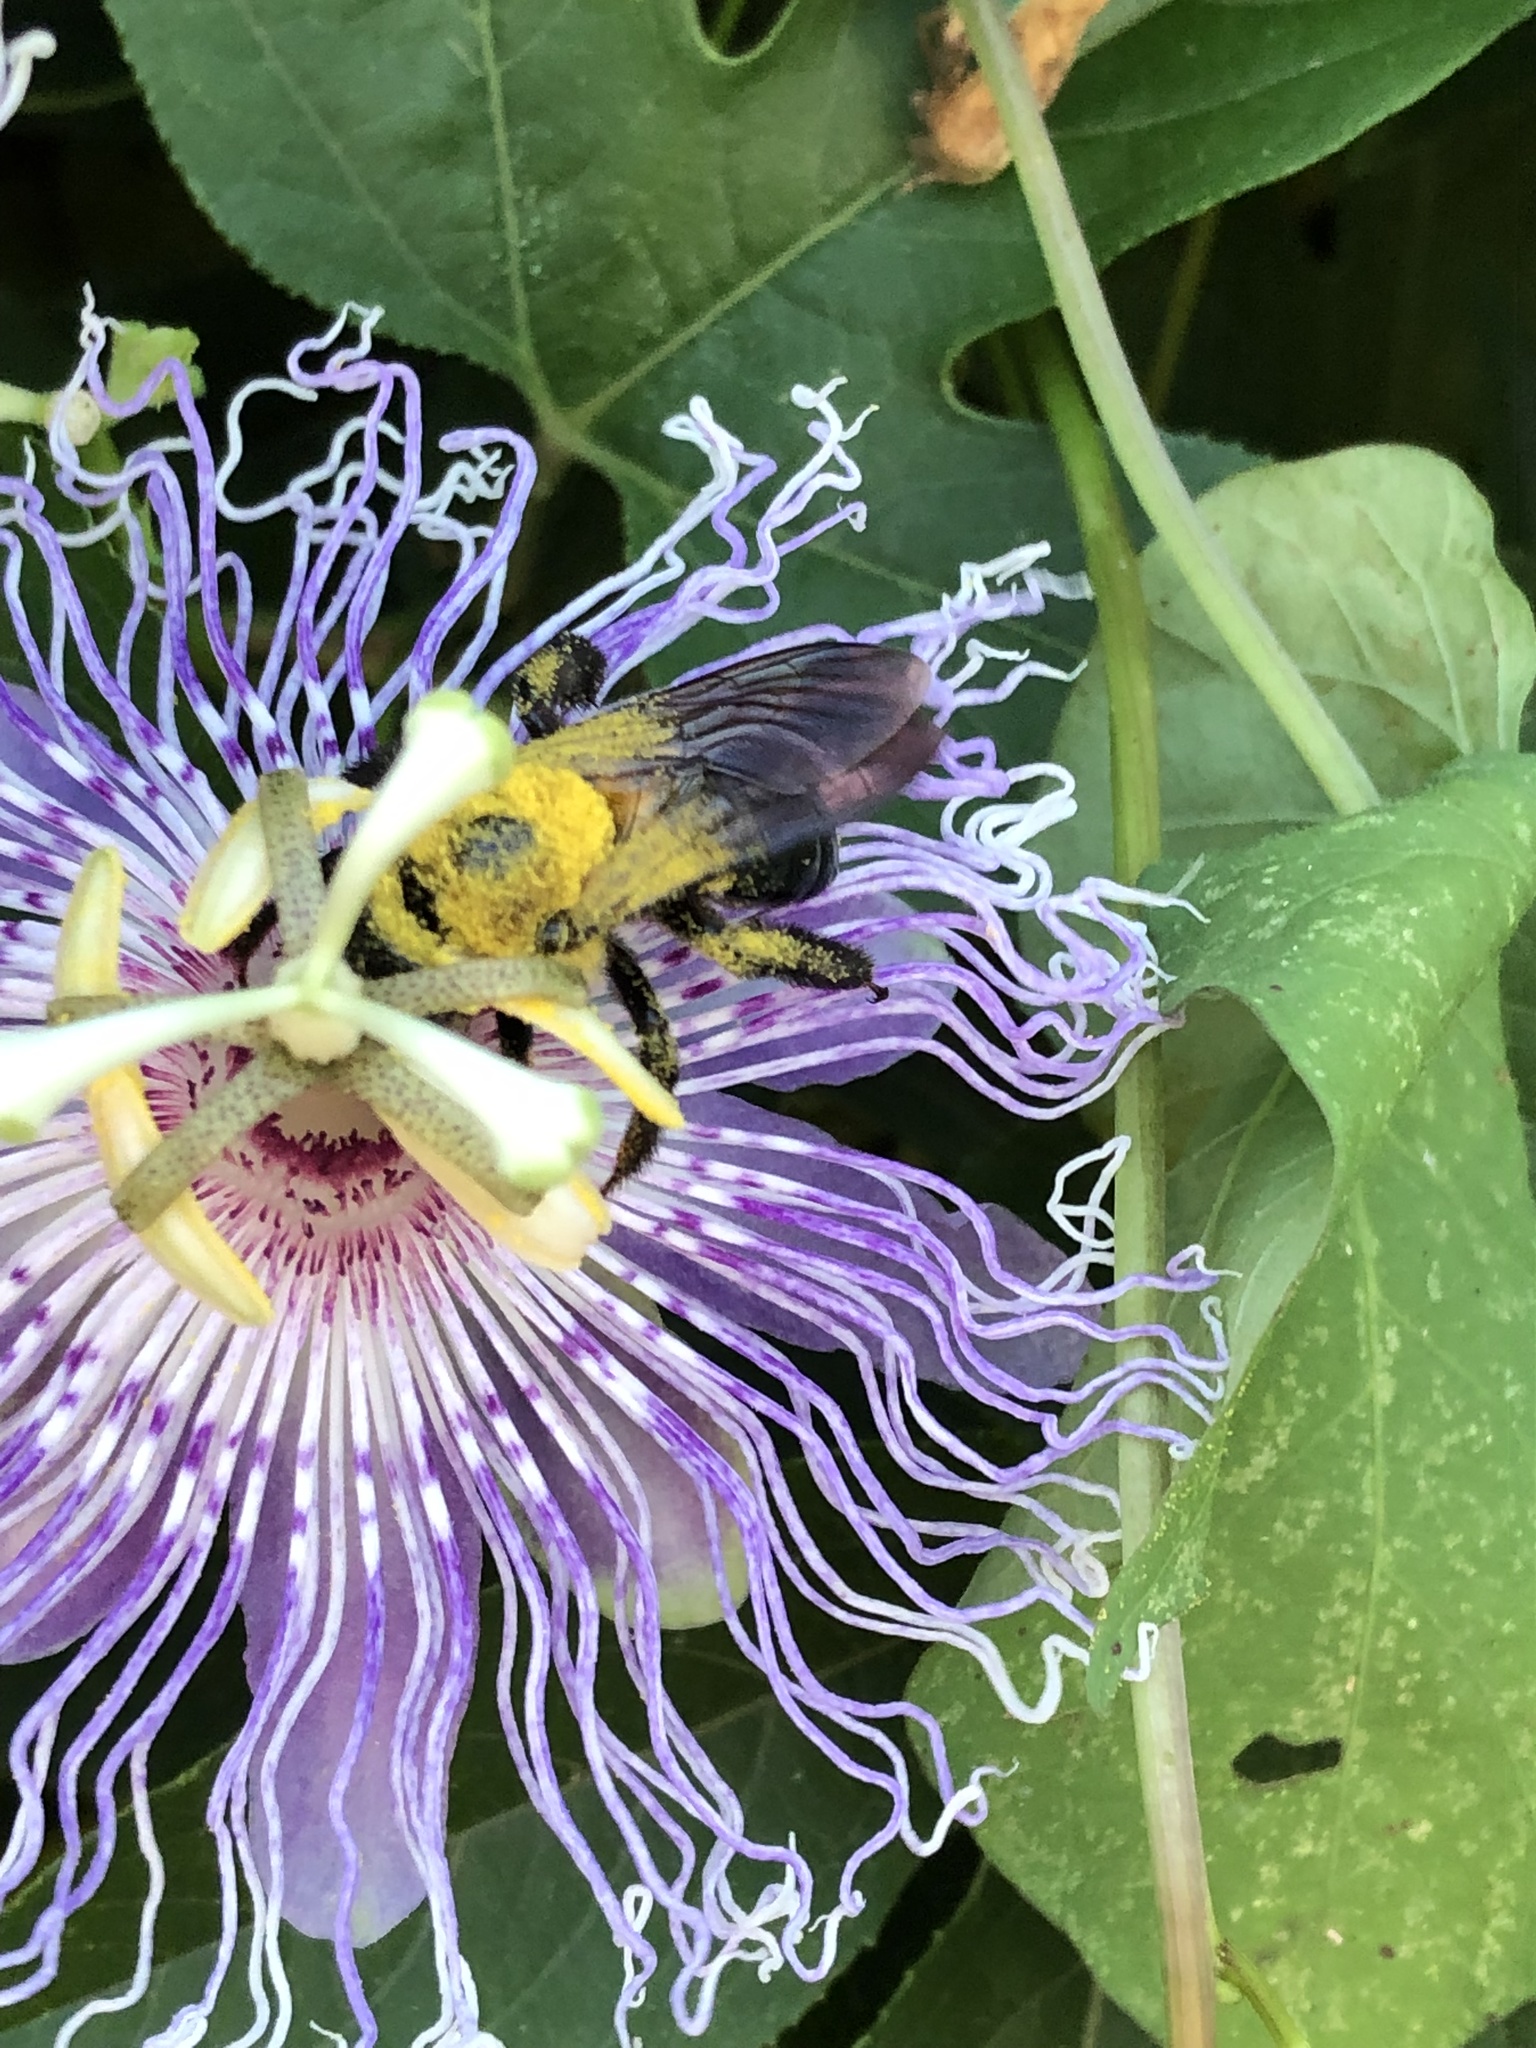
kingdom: Animalia
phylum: Arthropoda
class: Insecta
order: Hymenoptera
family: Apidae
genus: Xylocopa
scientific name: Xylocopa virginica
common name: Carpenter bee
